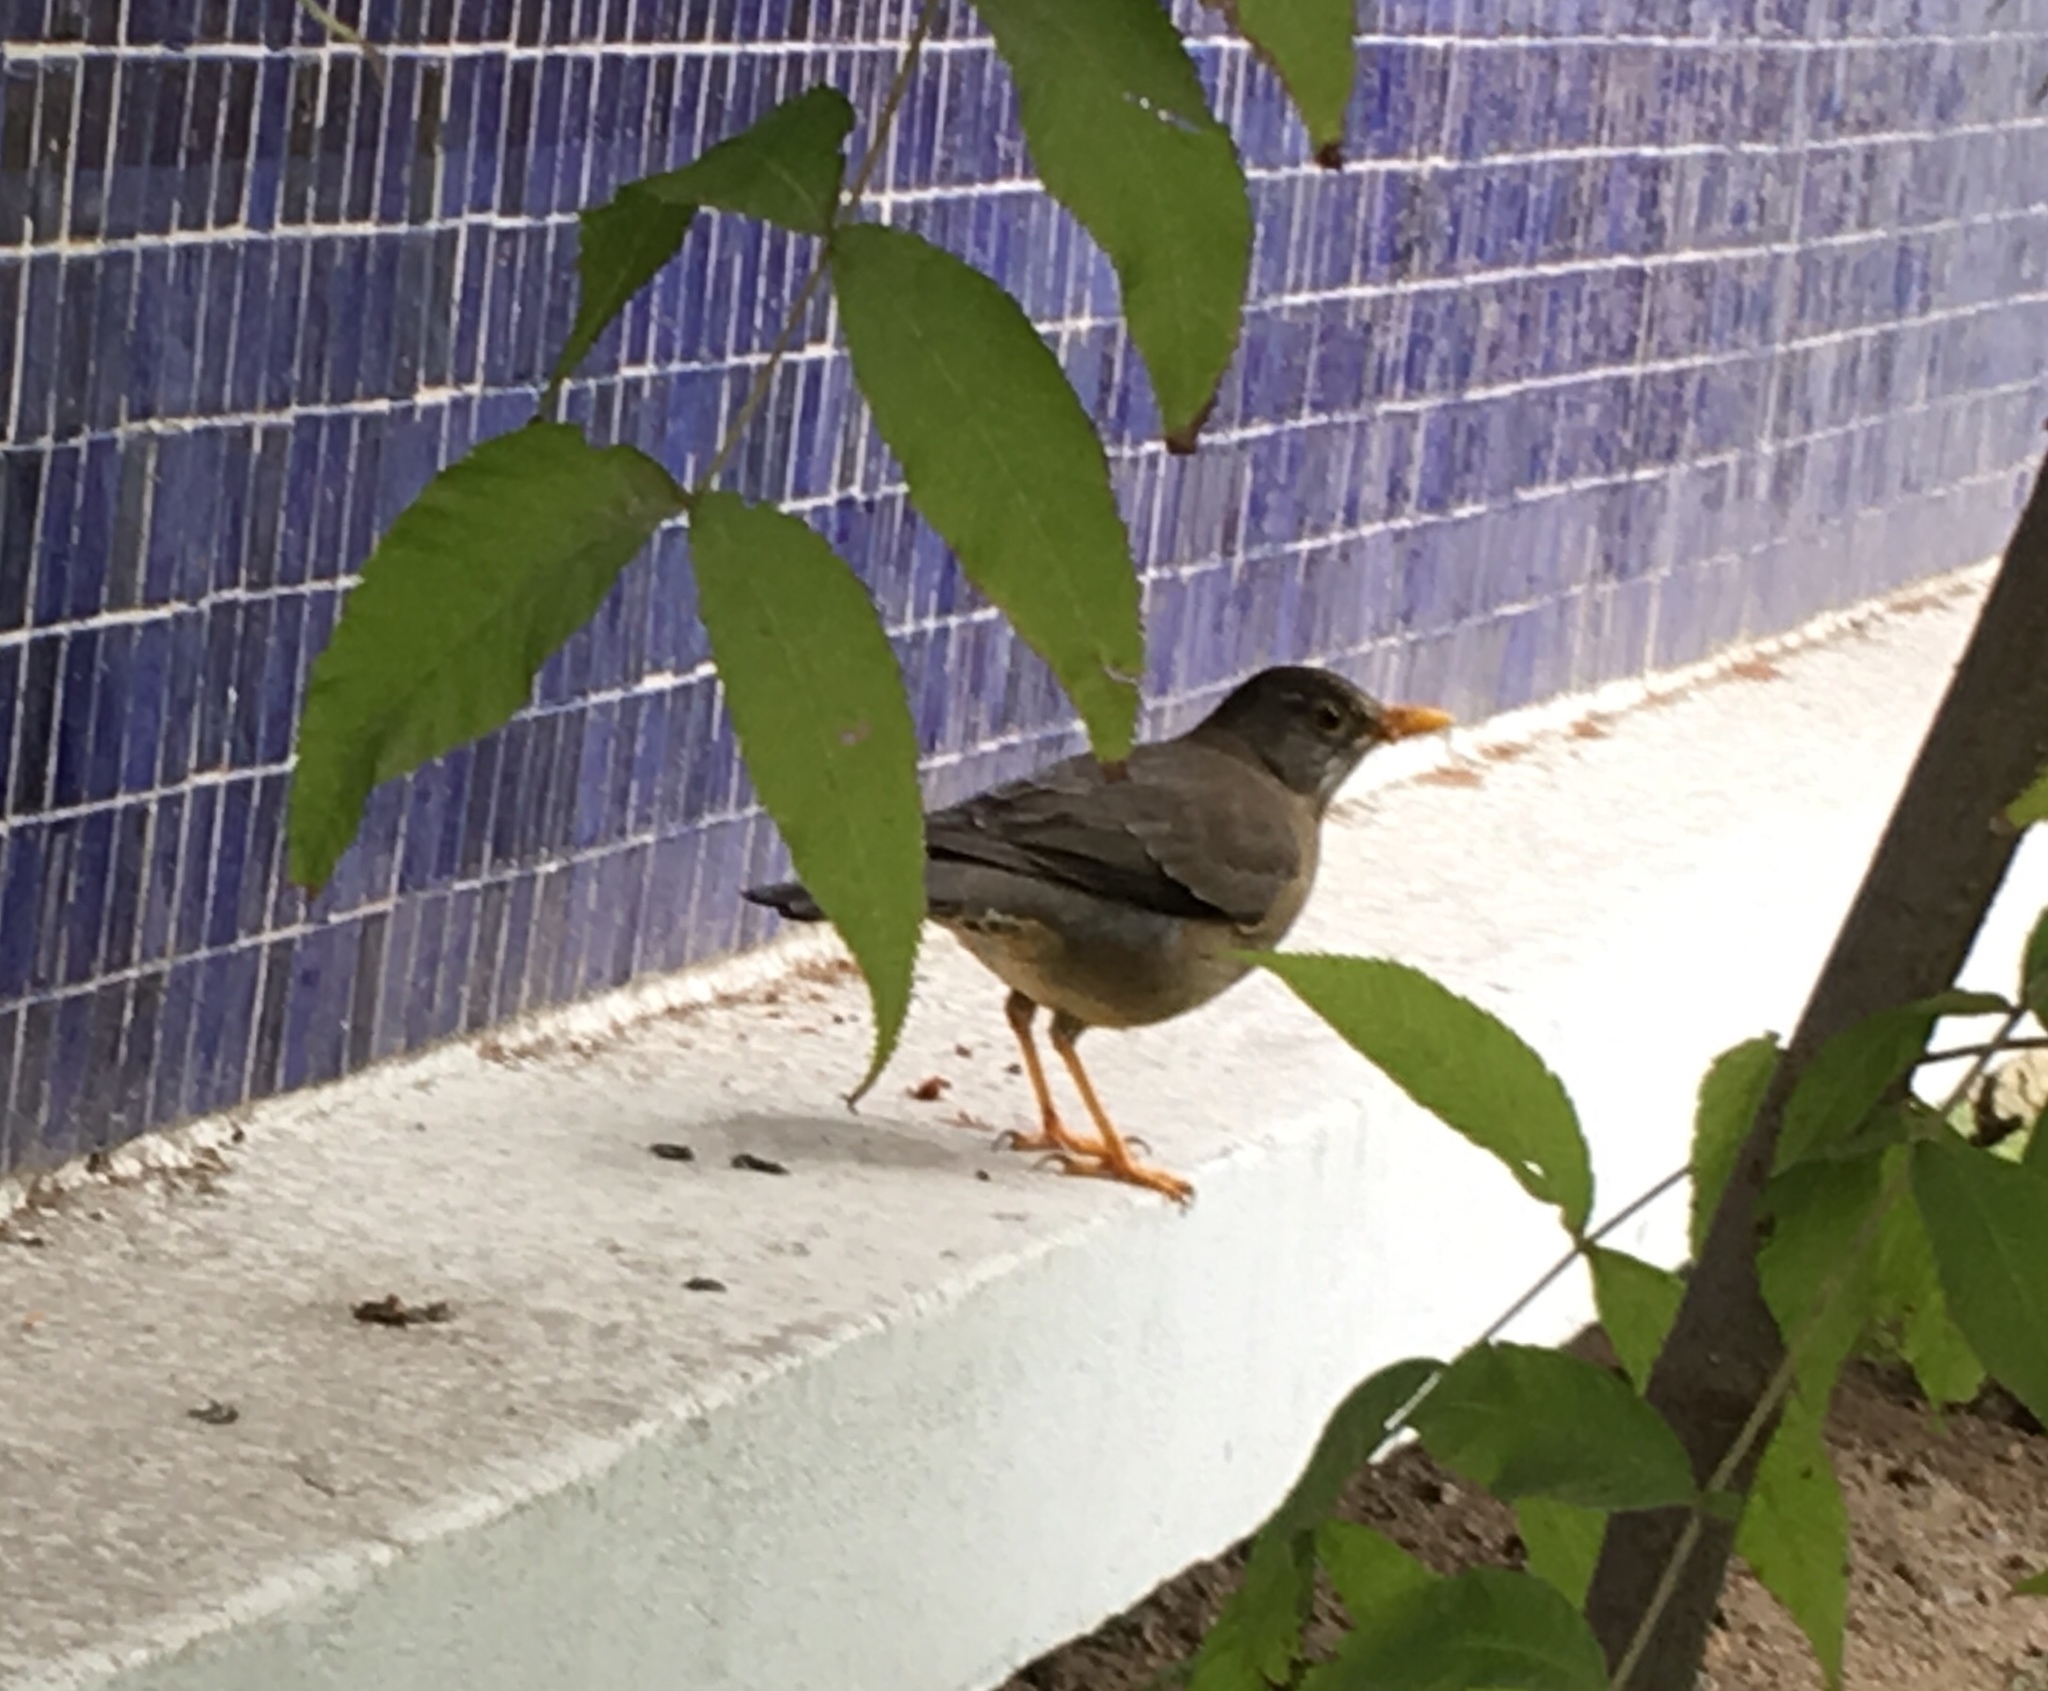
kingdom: Animalia
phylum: Chordata
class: Aves
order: Passeriformes
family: Turdidae
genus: Turdus
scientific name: Turdus falcklandii
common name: Austral thrush
